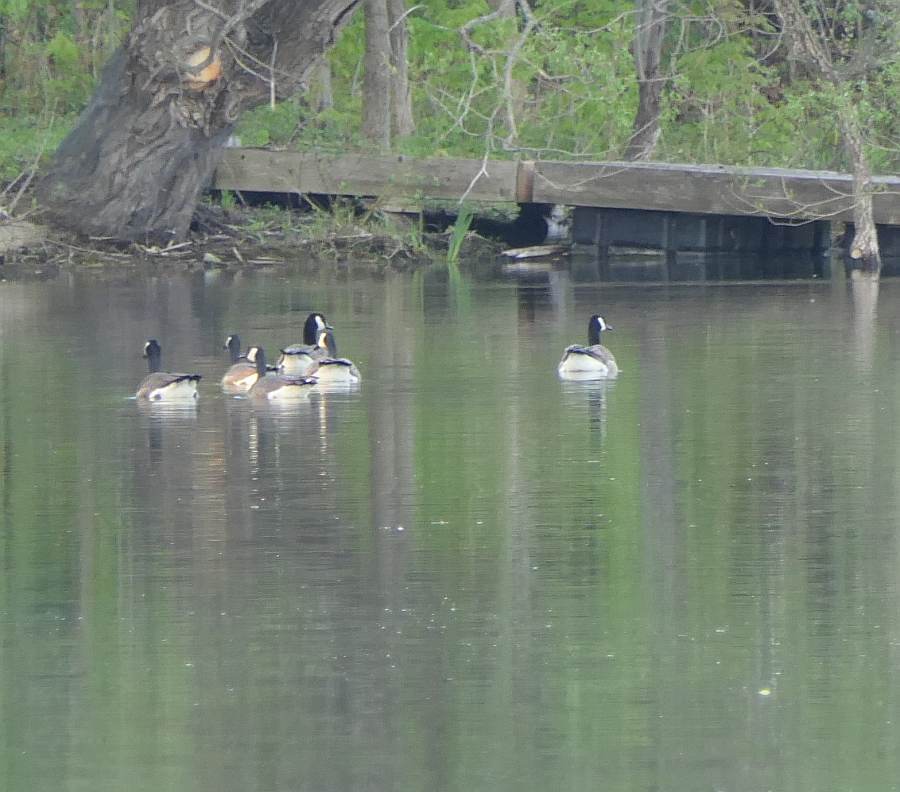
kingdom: Animalia
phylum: Chordata
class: Aves
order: Anseriformes
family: Anatidae
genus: Branta
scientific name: Branta canadensis
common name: Canada goose
